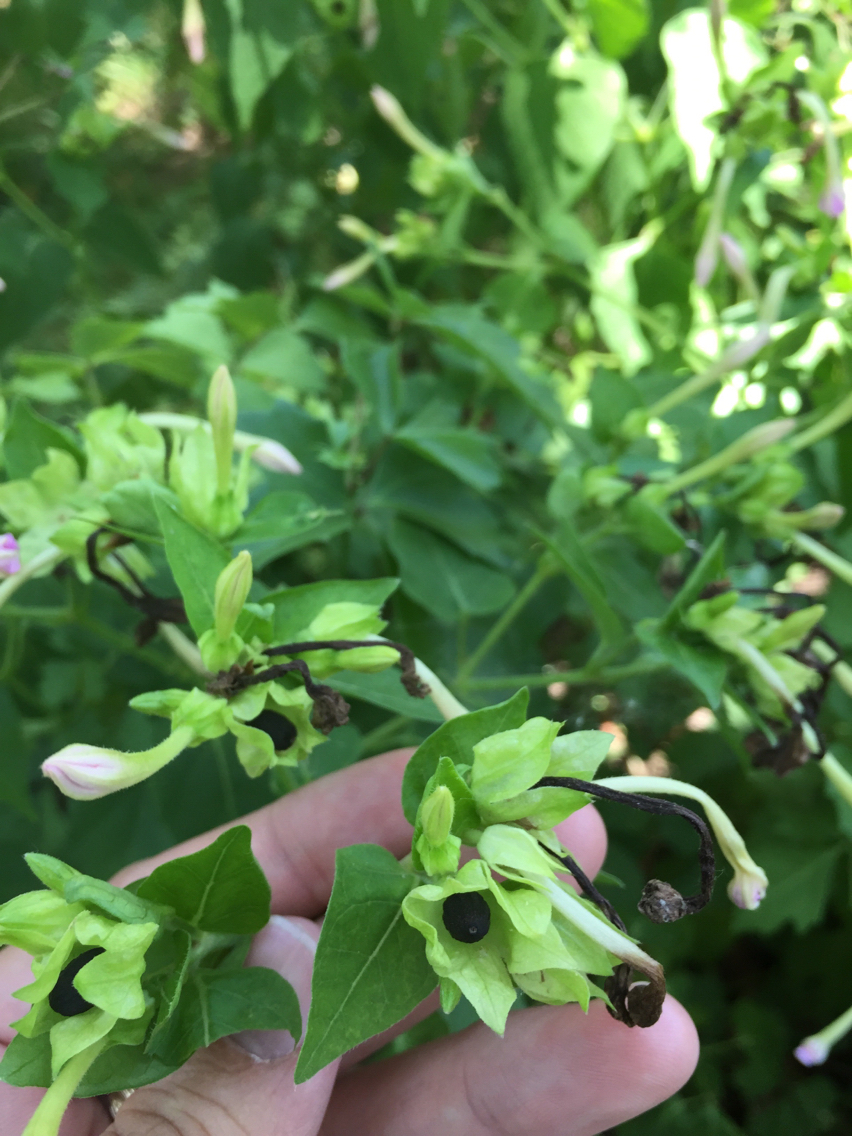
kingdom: Plantae
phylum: Tracheophyta
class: Magnoliopsida
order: Caryophyllales
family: Nyctaginaceae
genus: Mirabilis
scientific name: Mirabilis jalapa
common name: Marvel-of-peru
